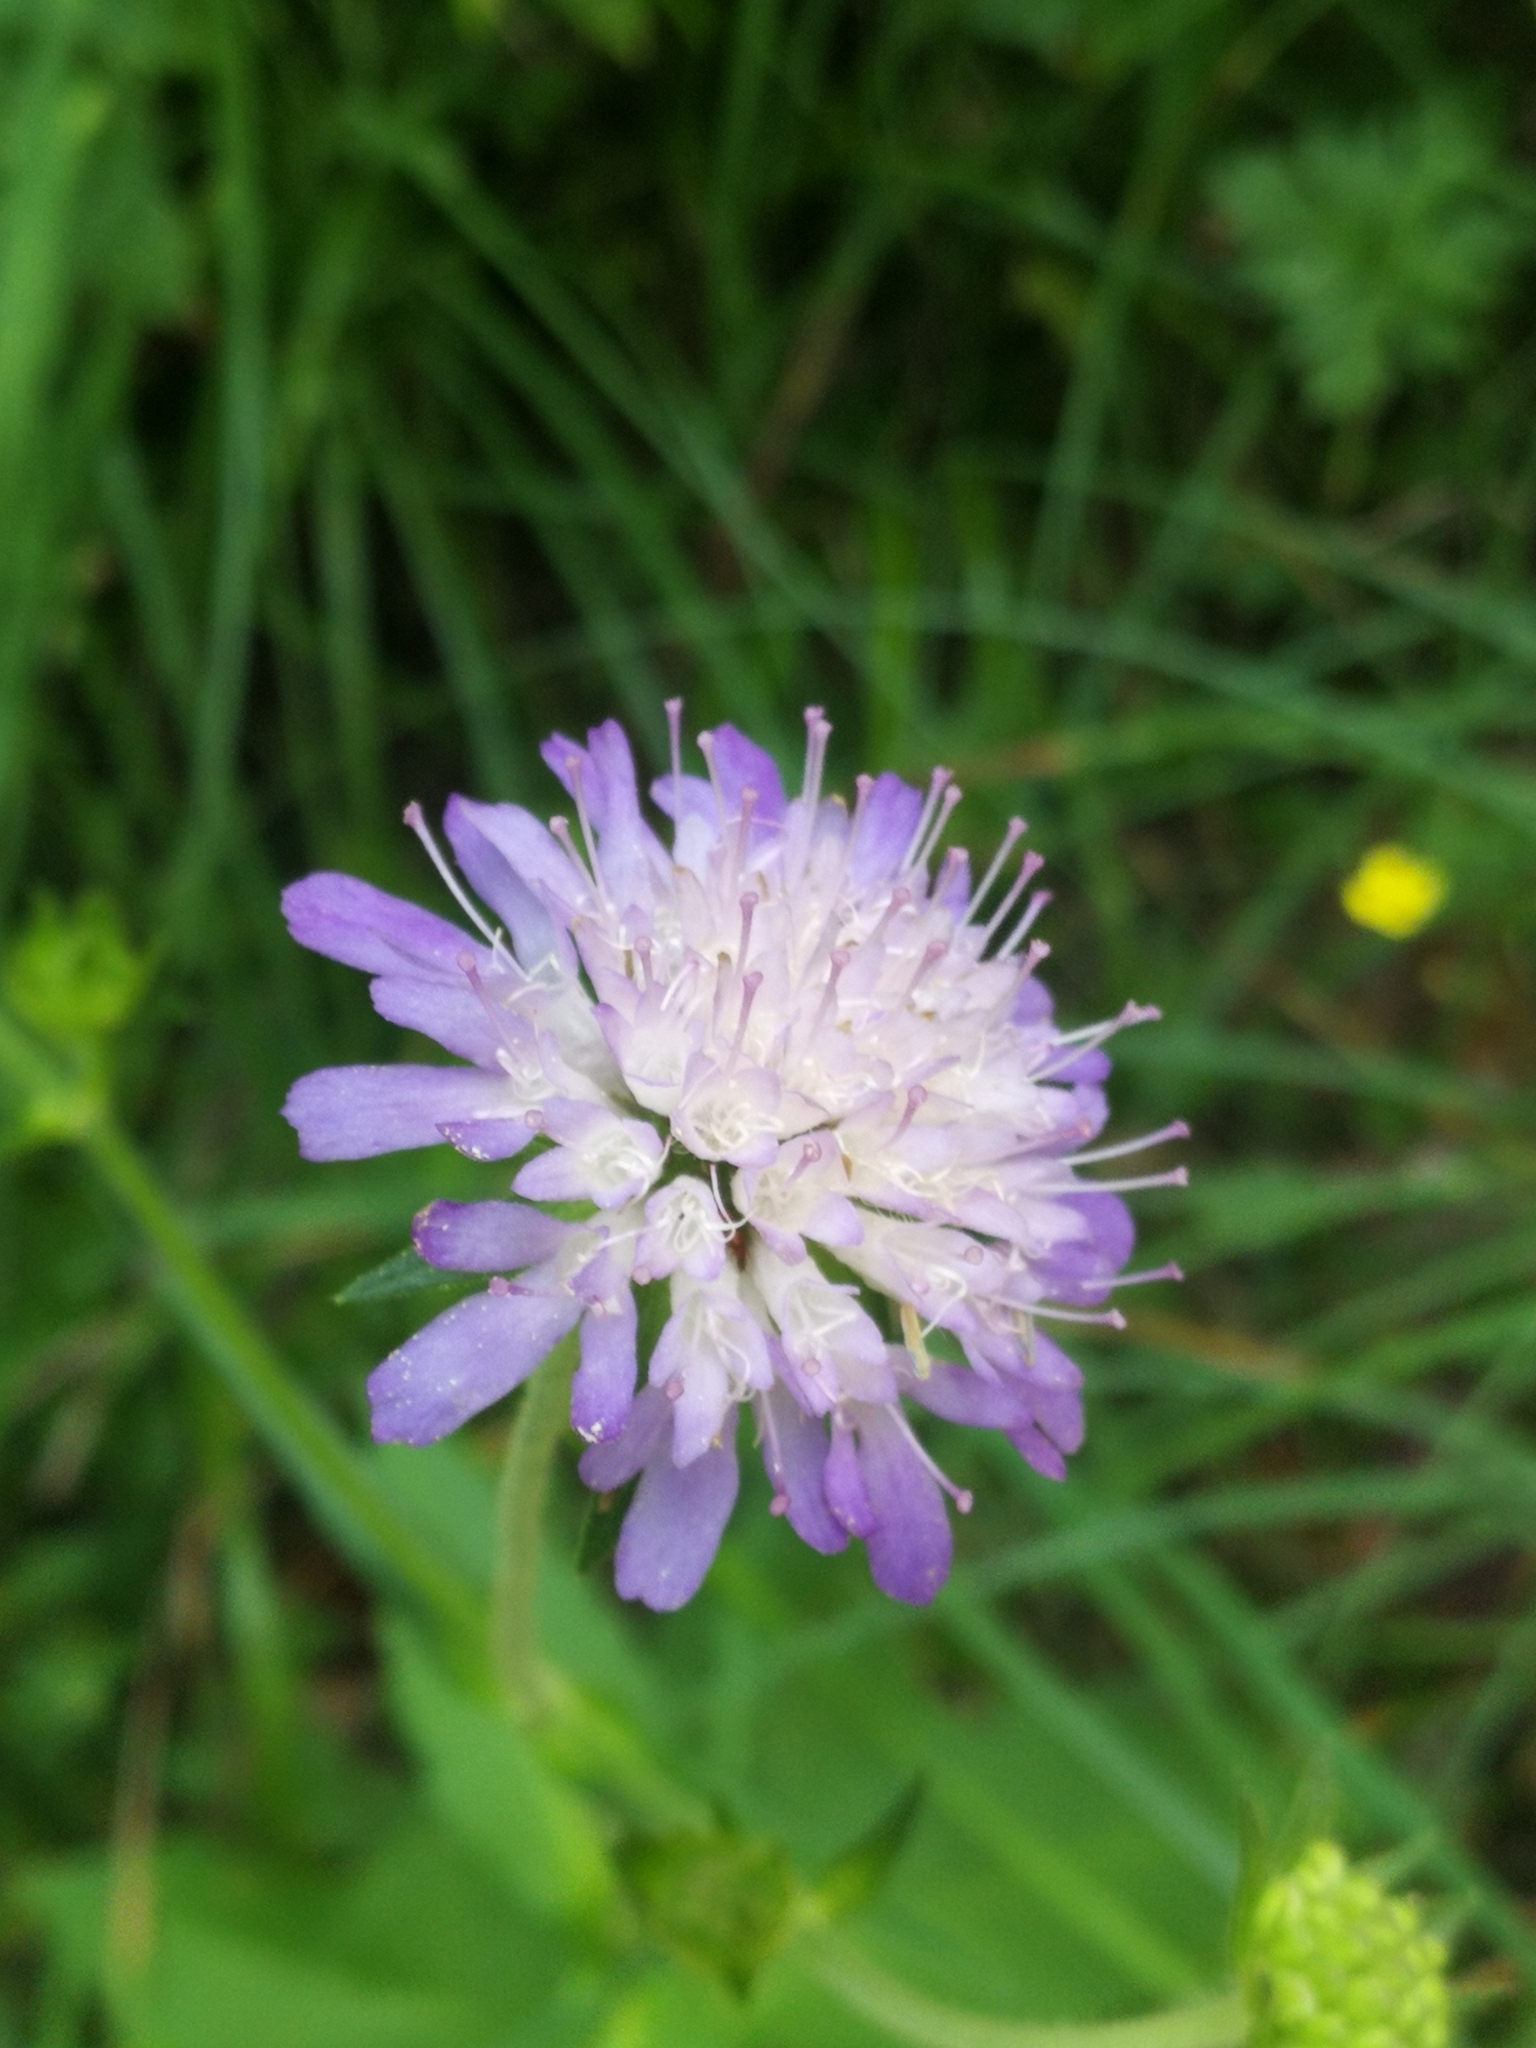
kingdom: Plantae
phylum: Tracheophyta
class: Magnoliopsida
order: Dipsacales
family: Caprifoliaceae
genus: Knautia
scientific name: Knautia arvensis
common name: Field scabiosa
